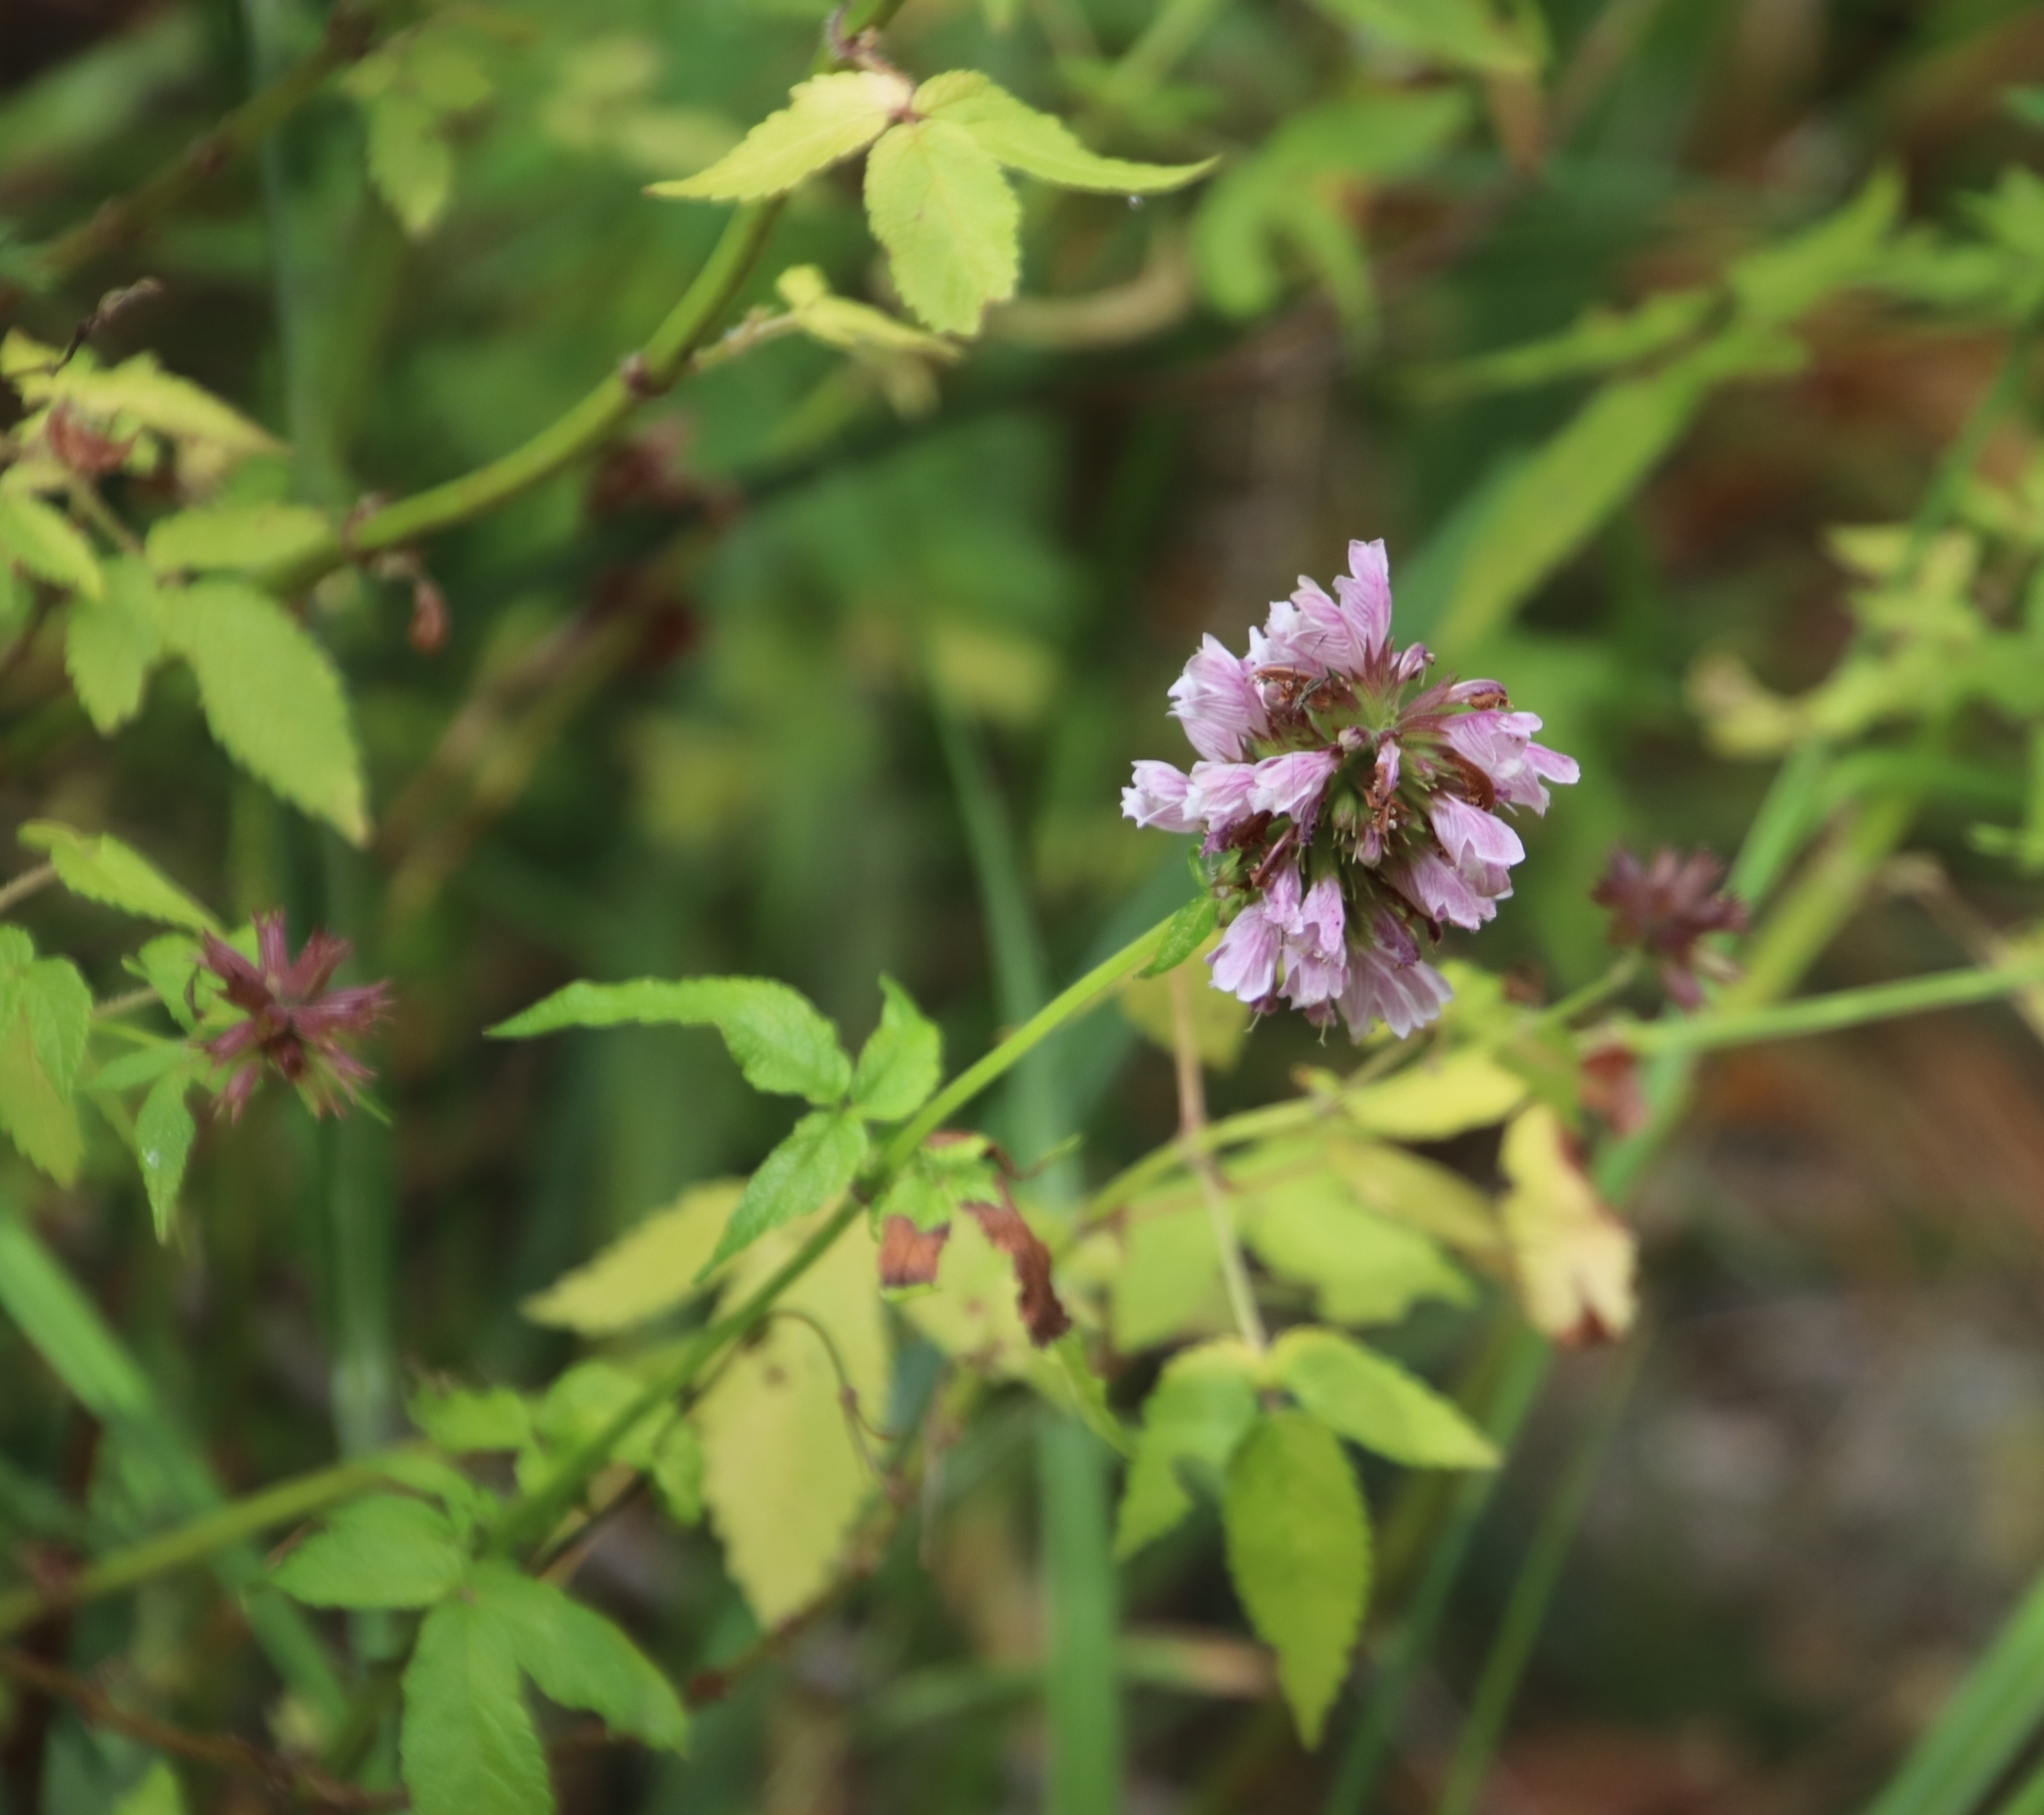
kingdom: Plantae
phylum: Tracheophyta
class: Magnoliopsida
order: Lamiales
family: Lamiaceae
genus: Cedronella
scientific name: Cedronella canariensis
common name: Canary islands balm
